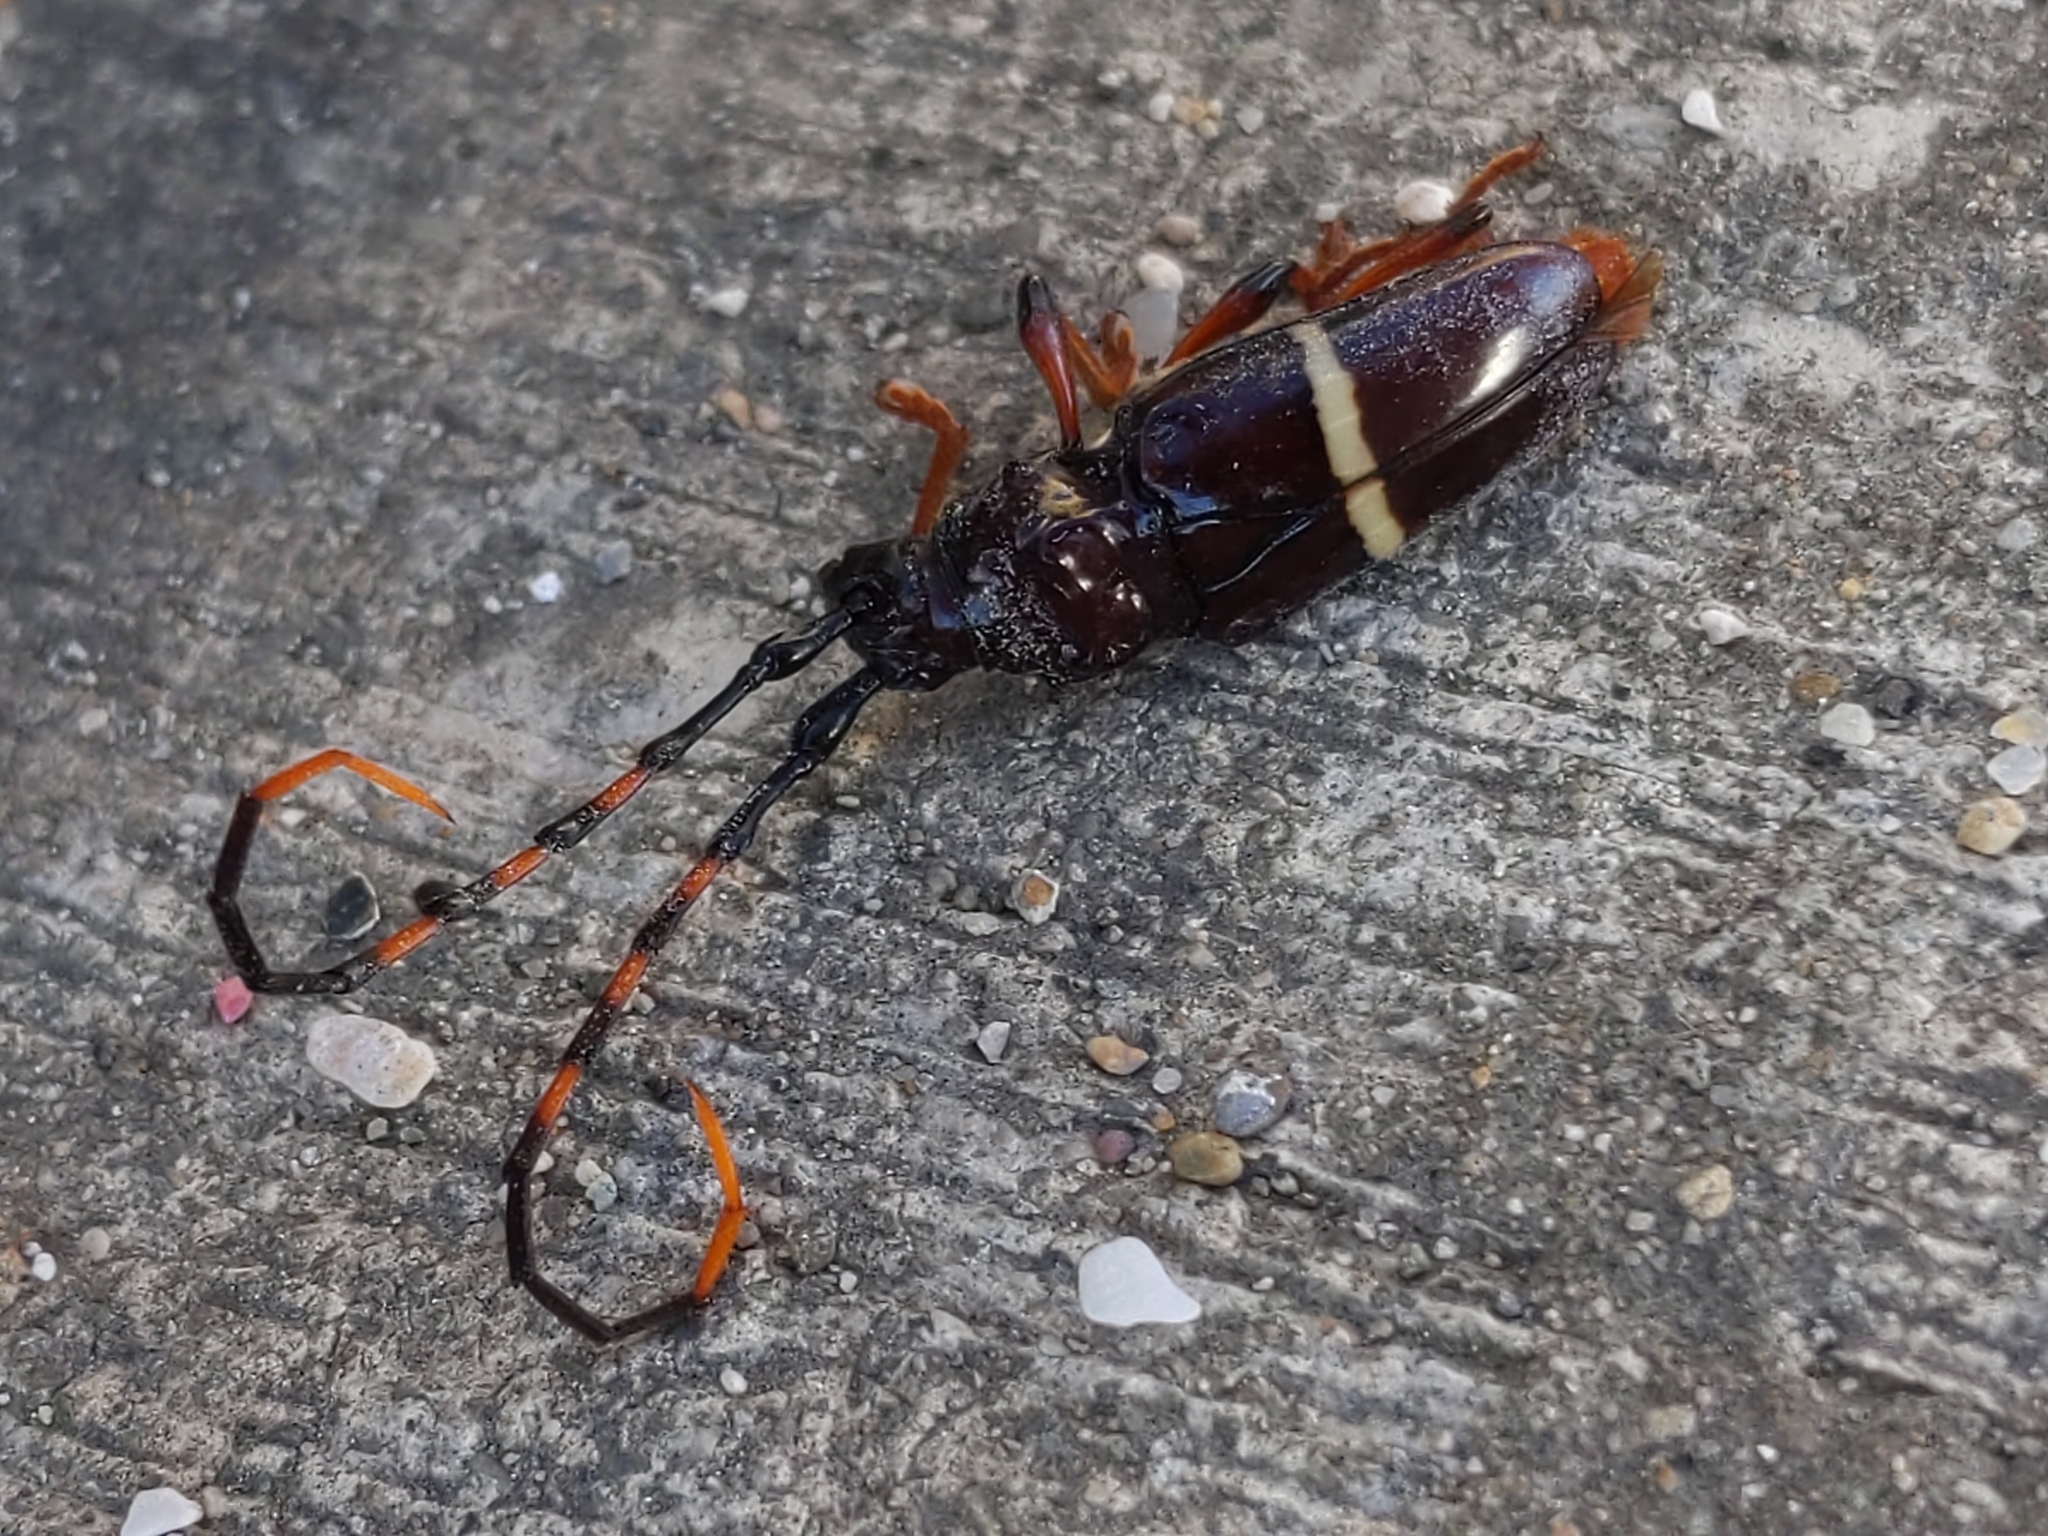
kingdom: Animalia
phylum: Arthropoda
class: Insecta
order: Coleoptera
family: Cerambycidae
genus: Trachyderes
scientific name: Trachyderes succinctus
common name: Mango longhorn
